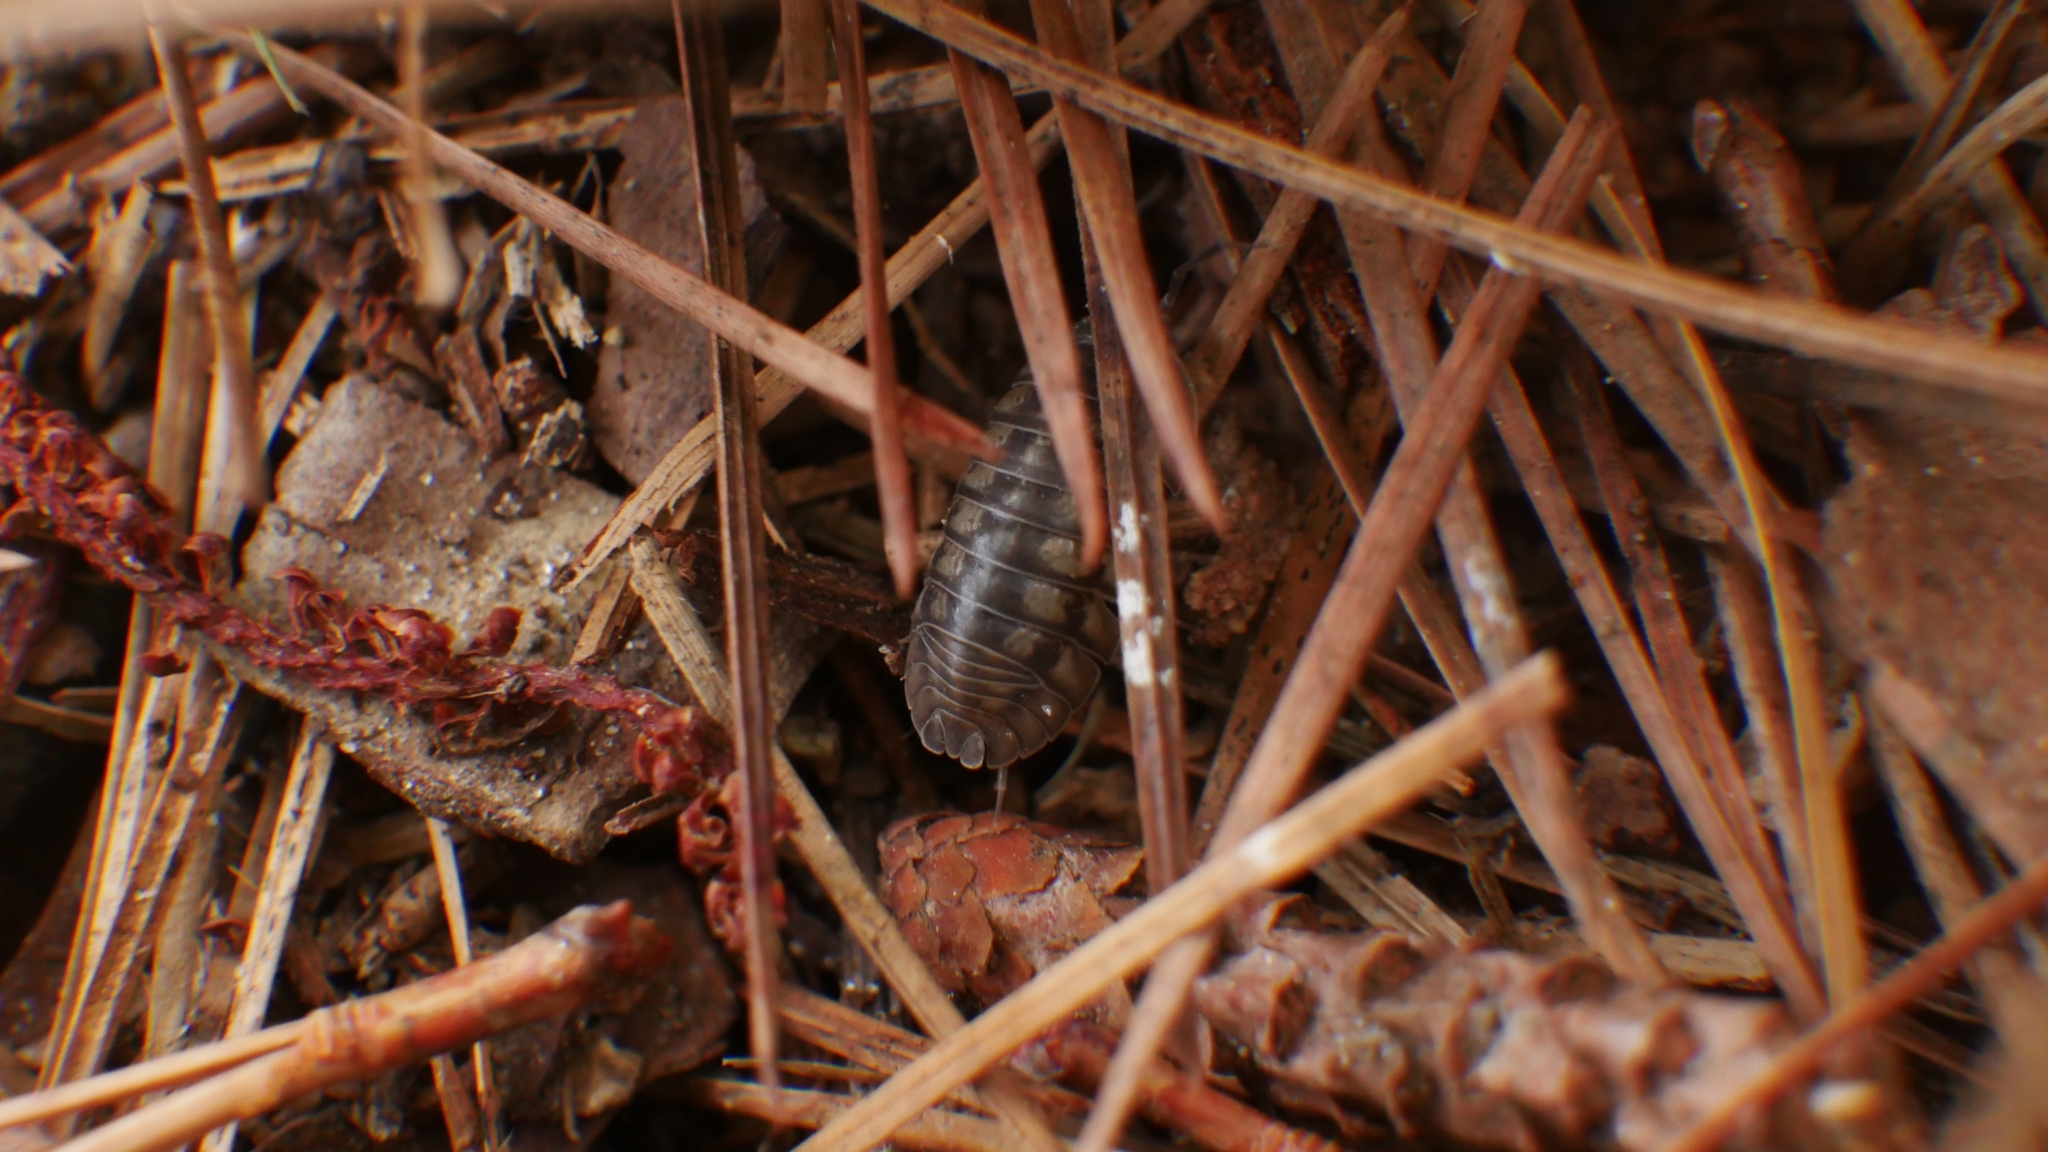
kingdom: Animalia
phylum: Arthropoda
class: Malacostraca
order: Isopoda
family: Armadillidiidae
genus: Armadillidium
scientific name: Armadillidium nasatum
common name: Isopod
